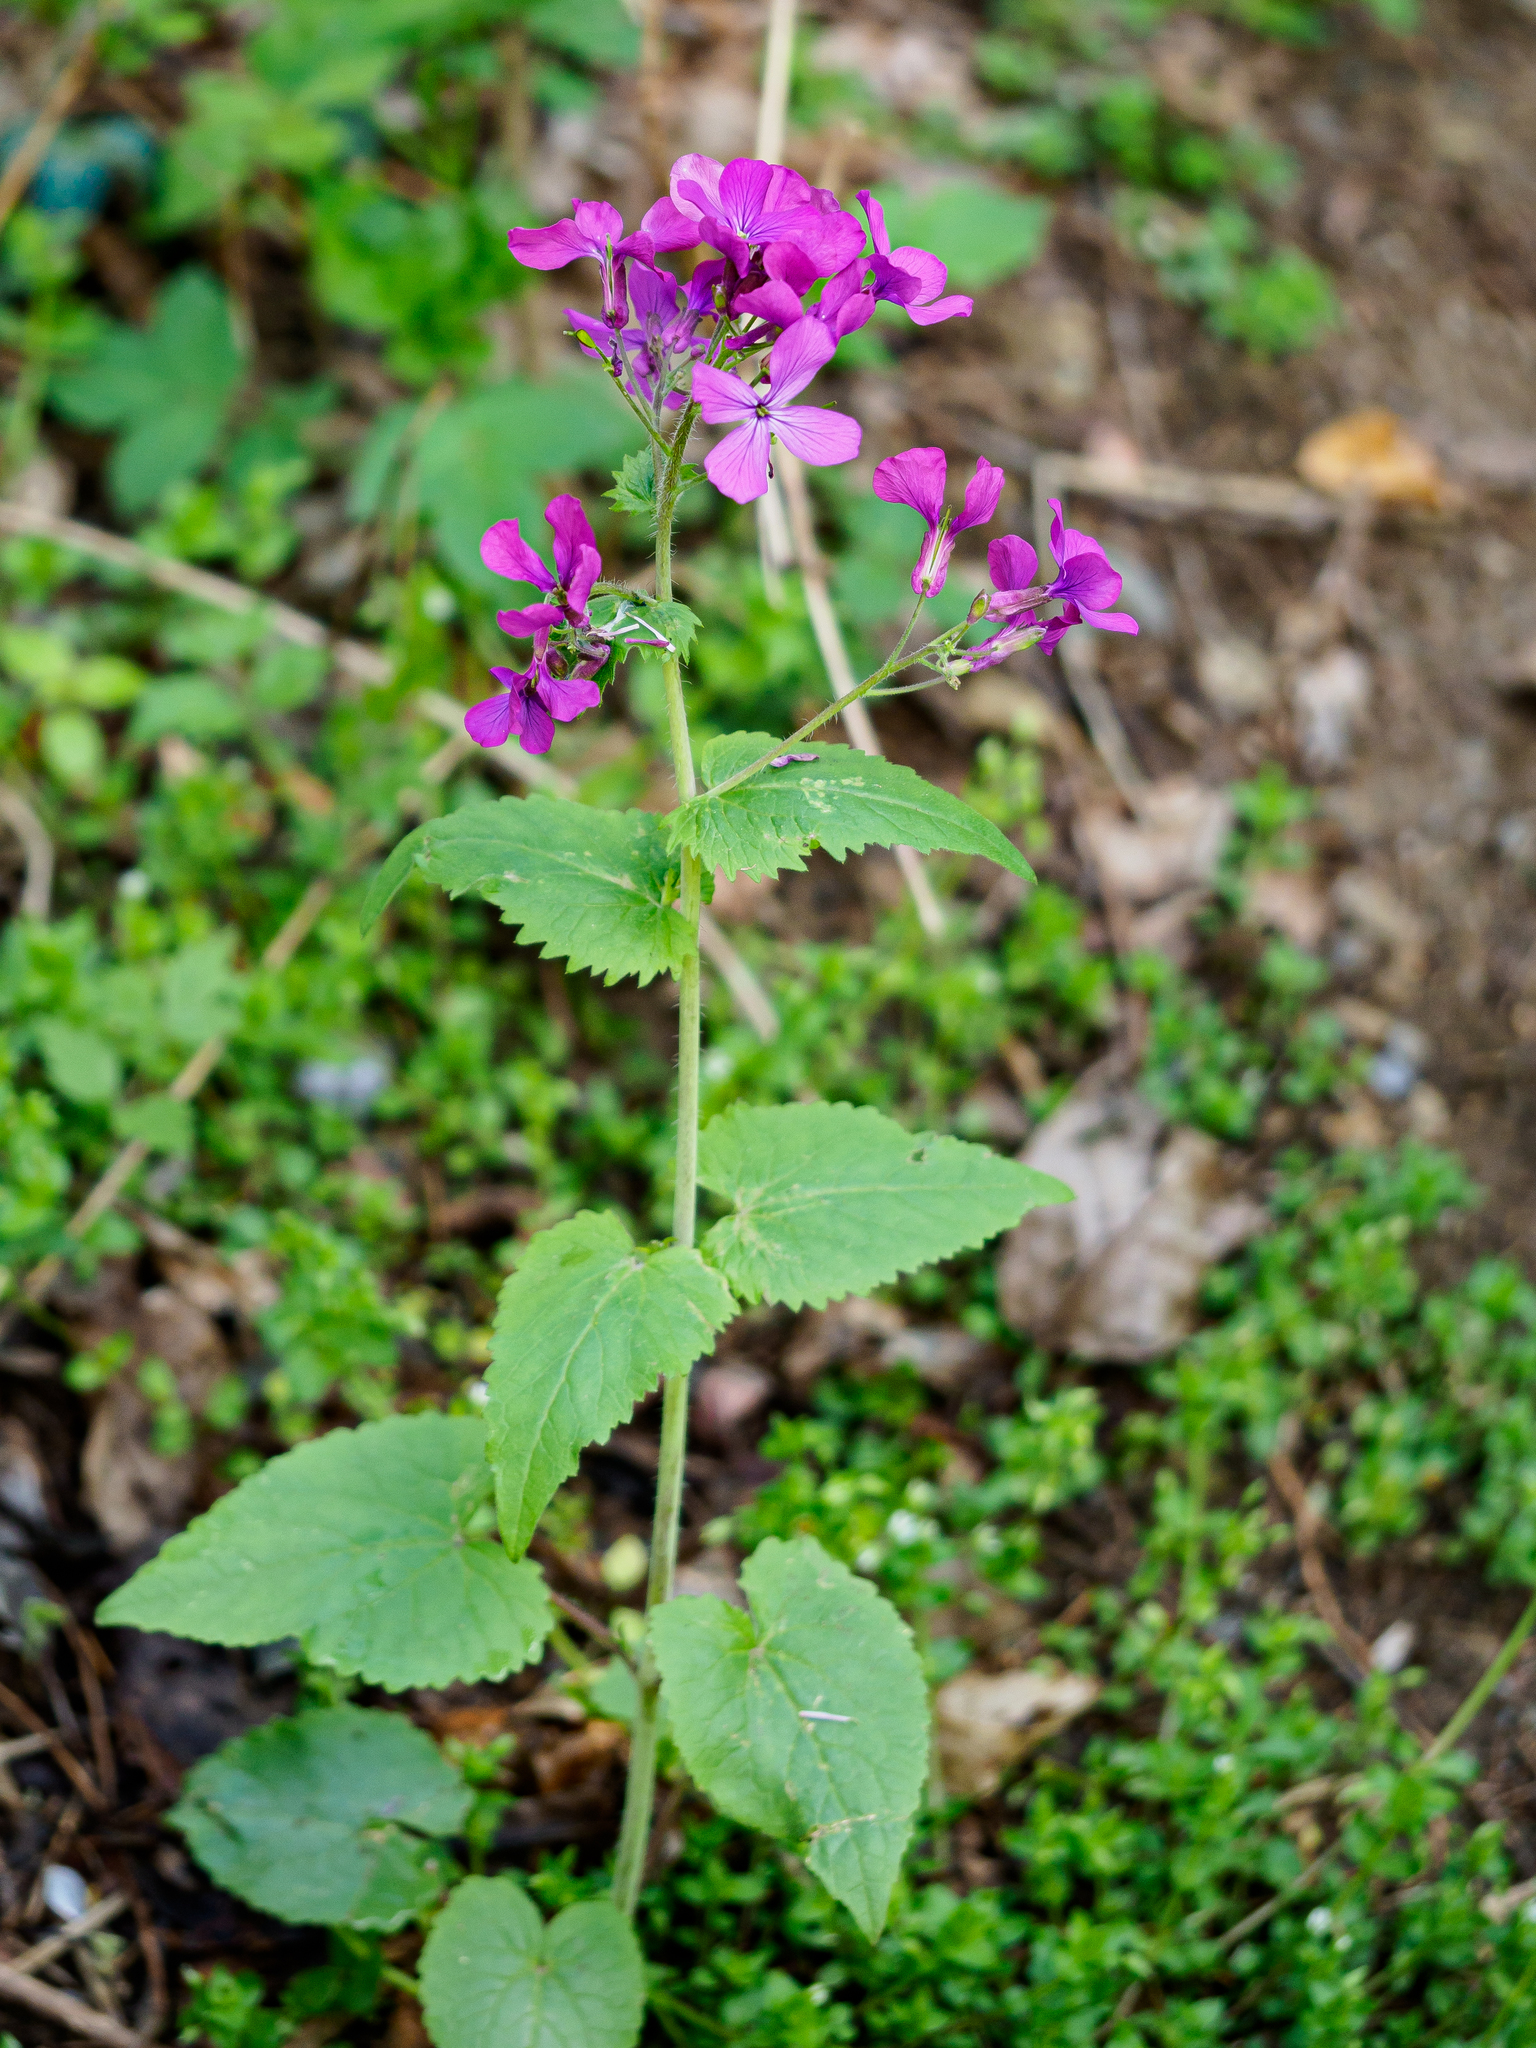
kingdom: Plantae
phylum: Tracheophyta
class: Magnoliopsida
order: Brassicales
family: Brassicaceae
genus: Lunaria
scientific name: Lunaria annua
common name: Honesty
